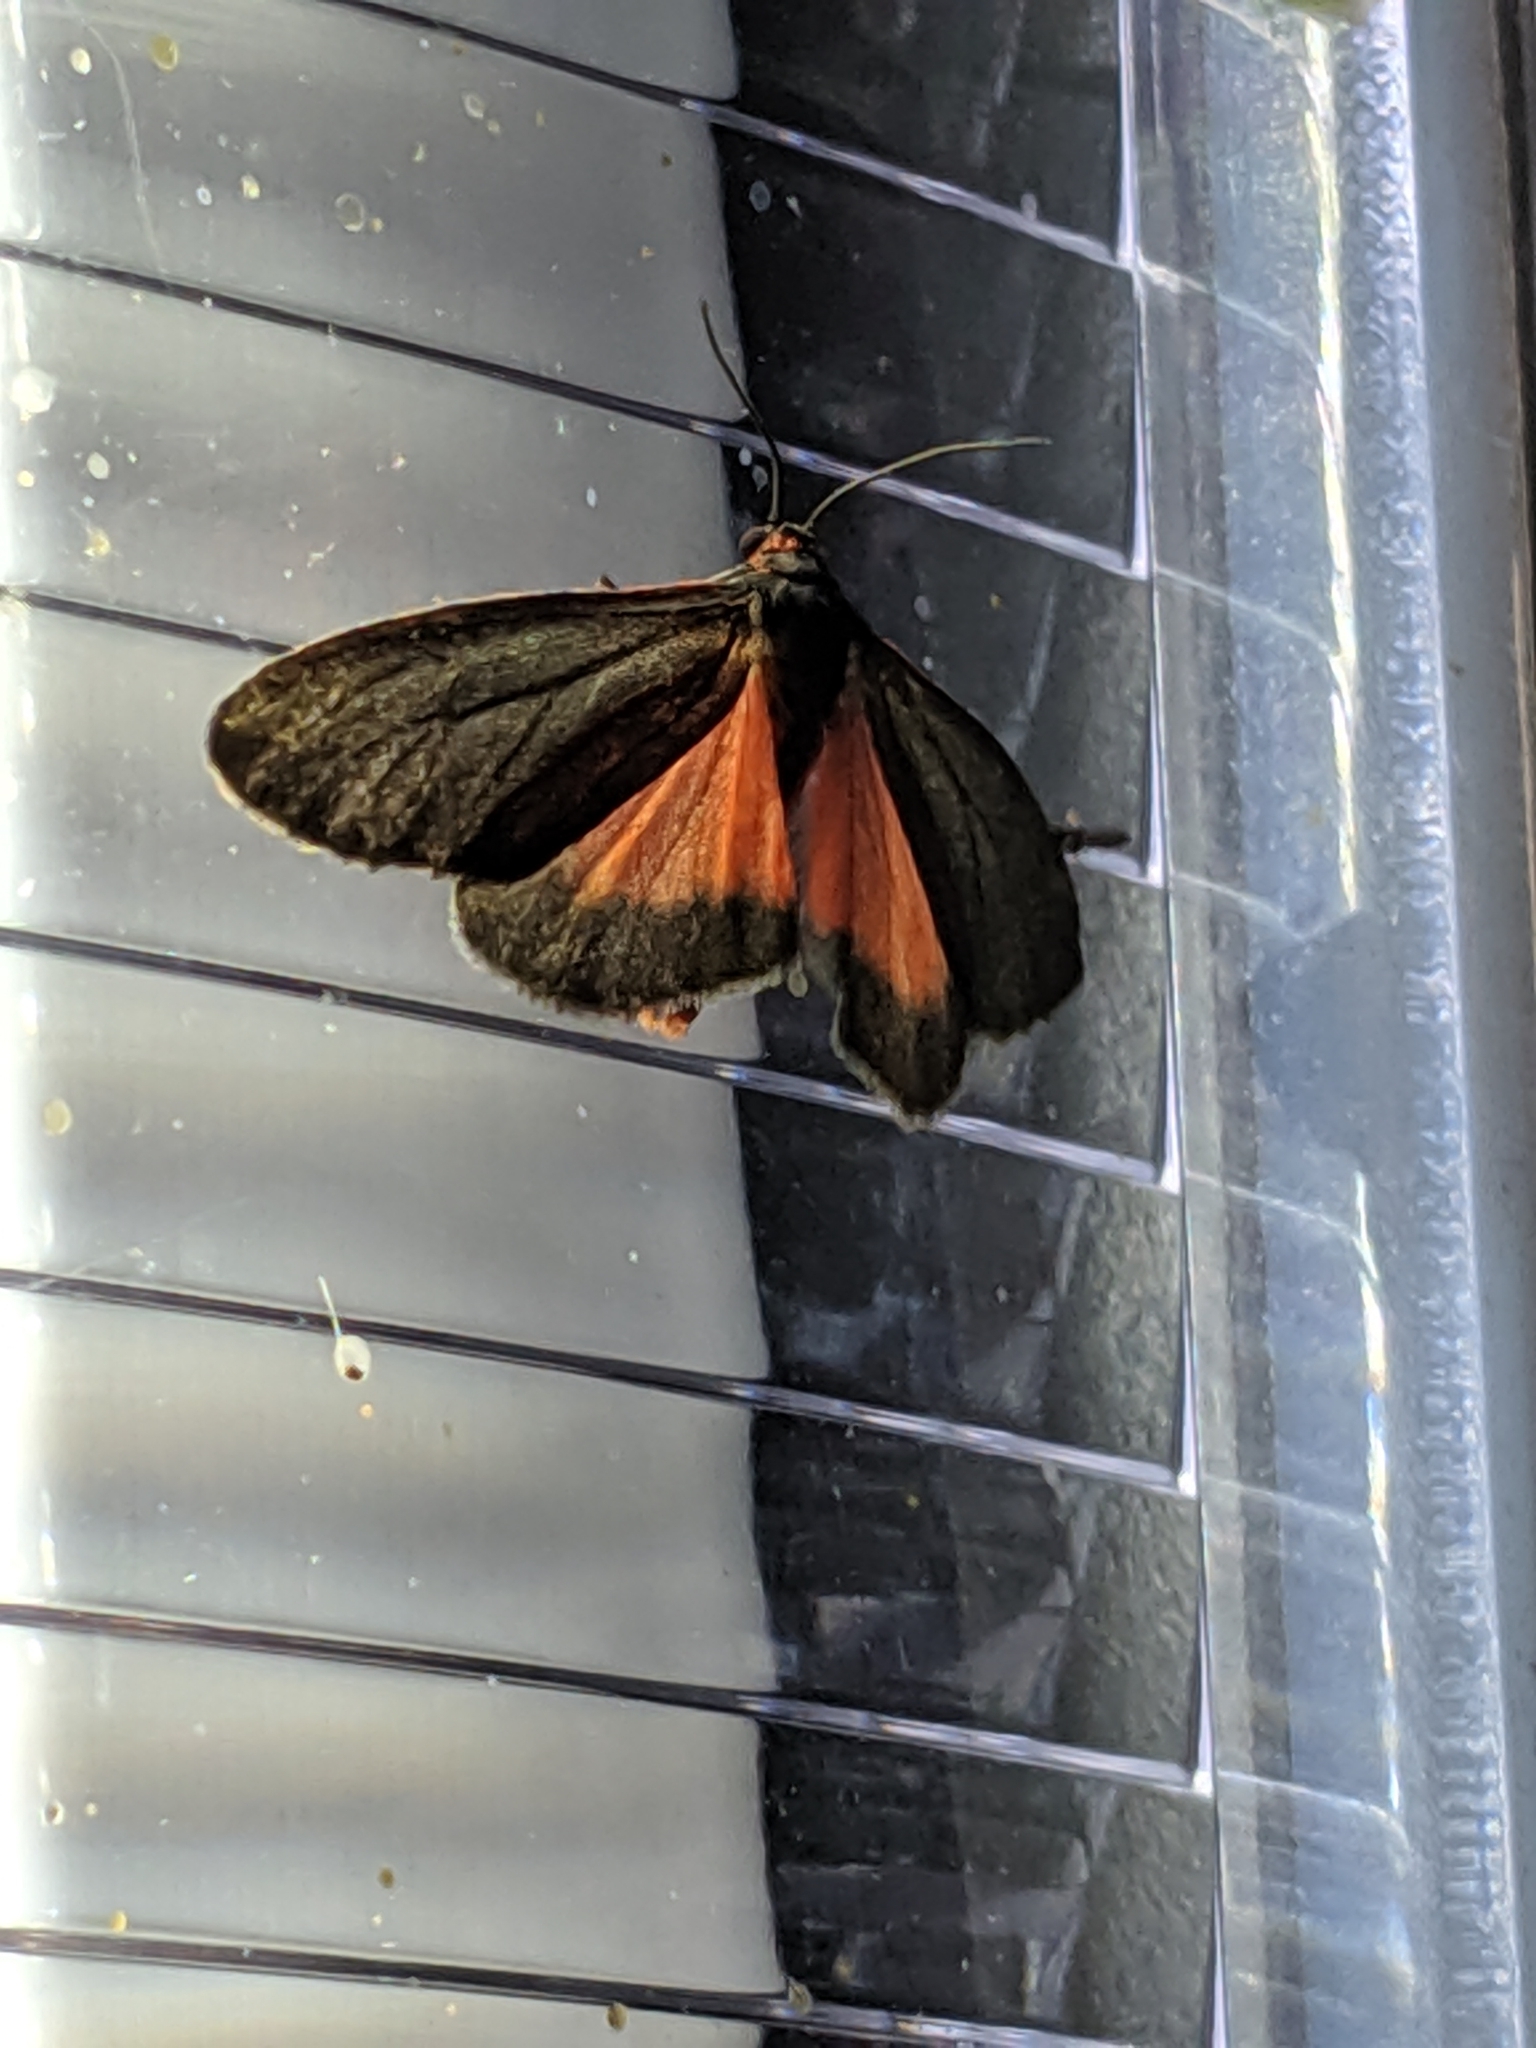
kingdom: Animalia
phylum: Arthropoda
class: Insecta
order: Lepidoptera
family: Erebidae
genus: Virbia
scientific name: Virbia laeta
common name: Joyful holomelina moth
